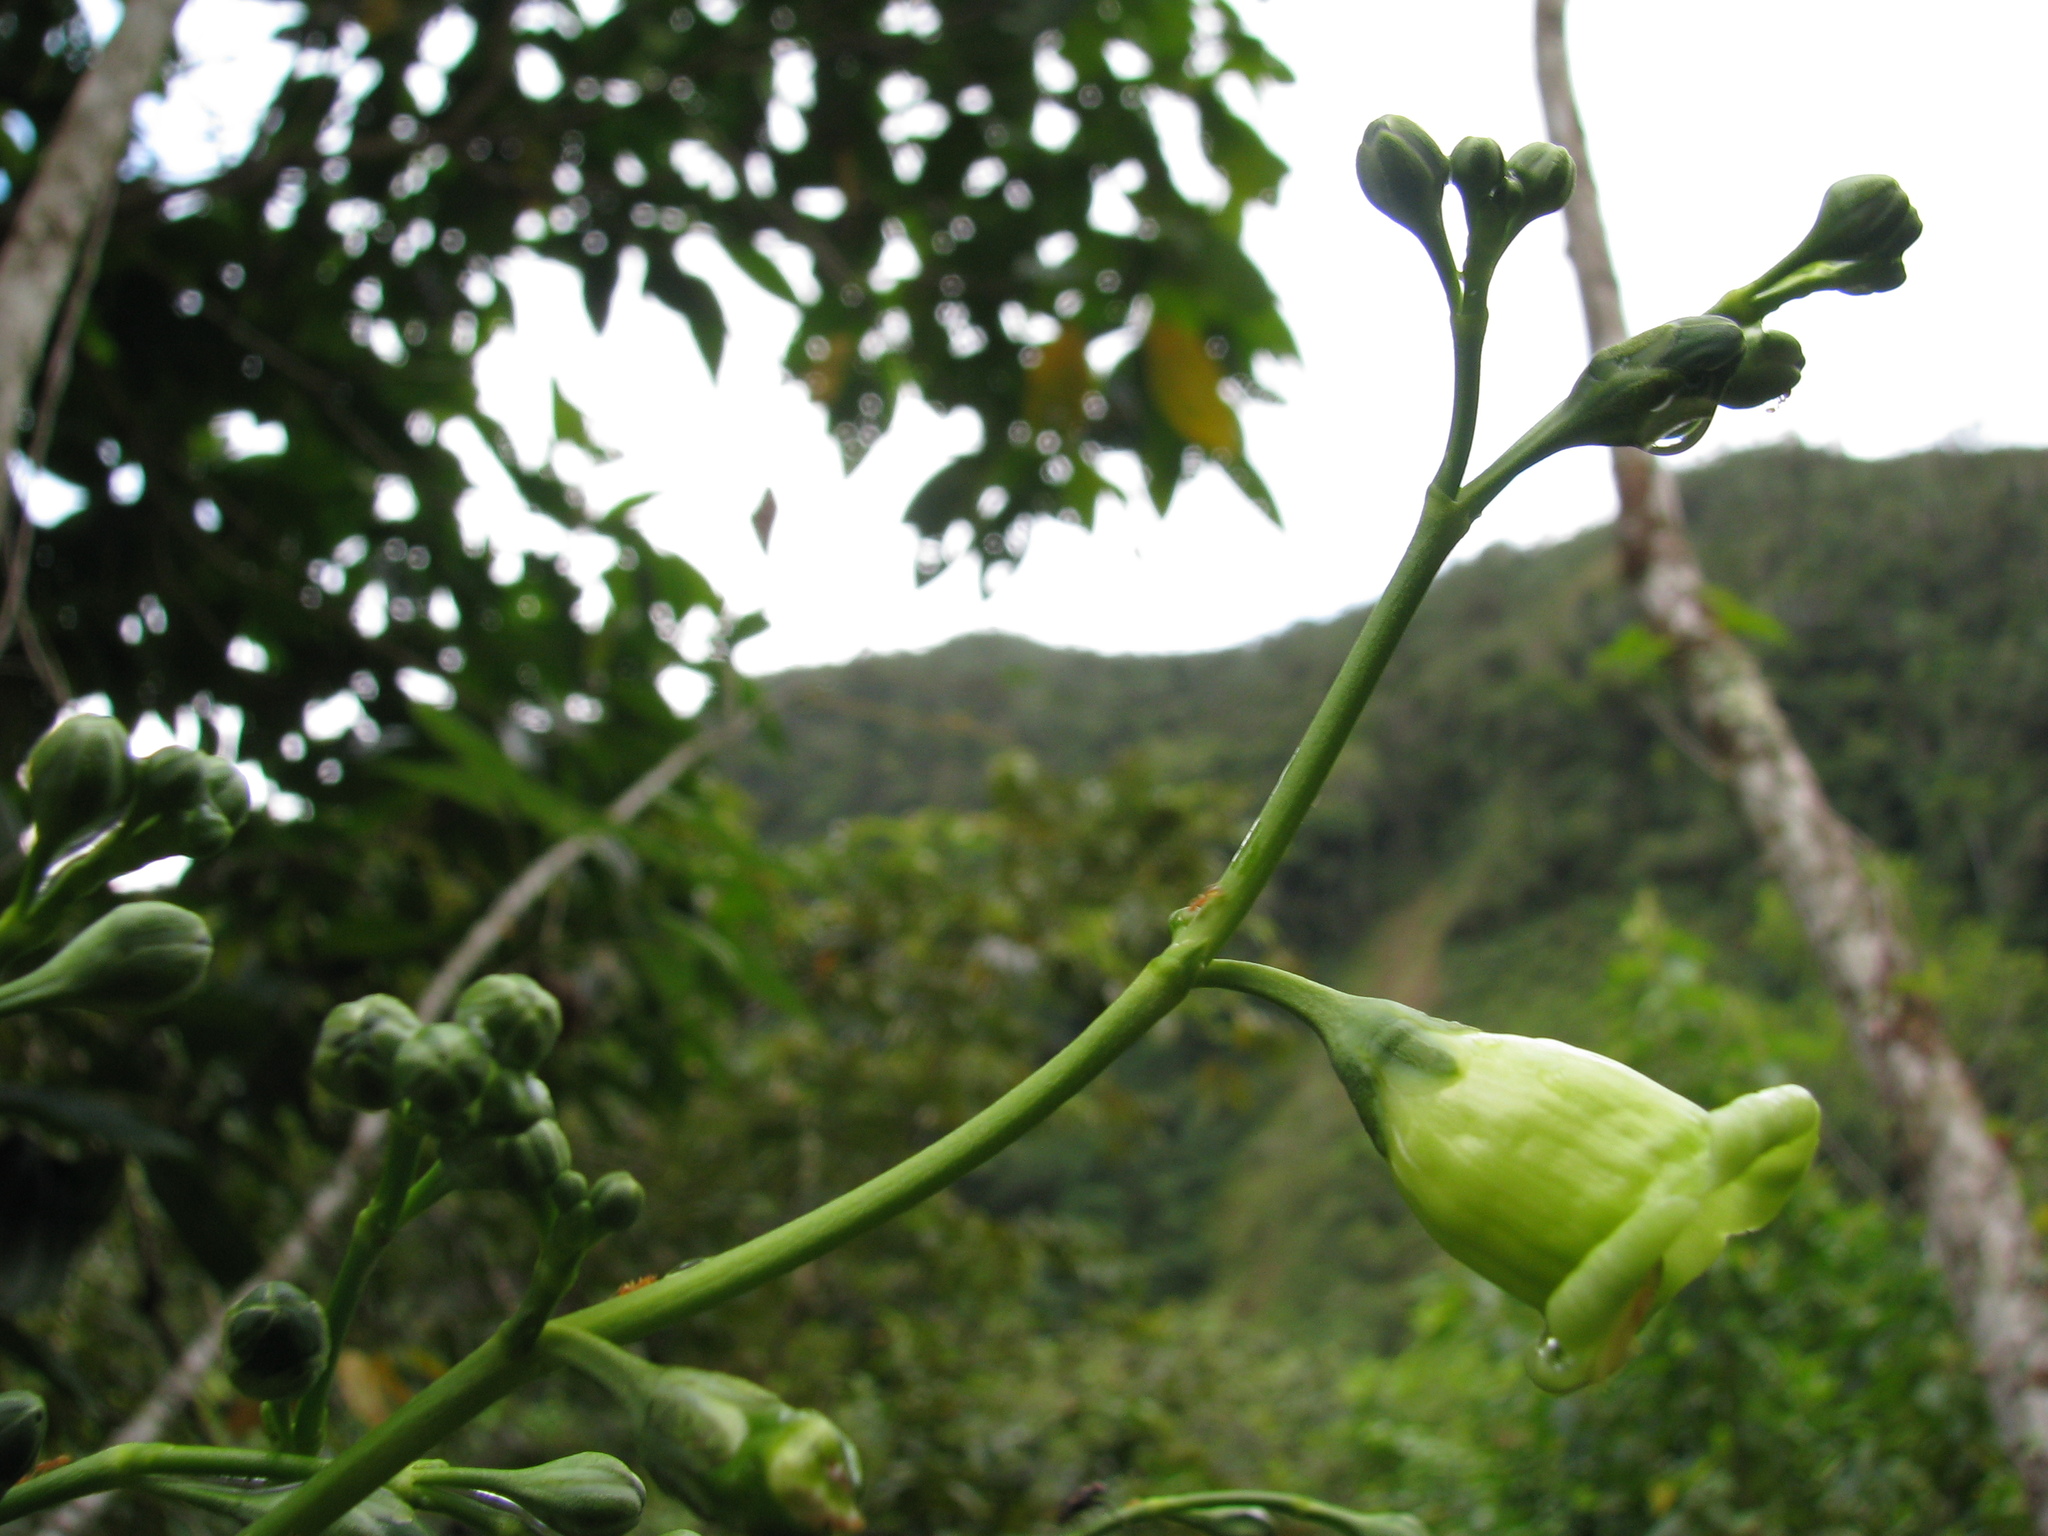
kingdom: Plantae
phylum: Tracheophyta
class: Magnoliopsida
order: Gentianales
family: Gentianaceae
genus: Chelonanthus
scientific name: Chelonanthus alatus
